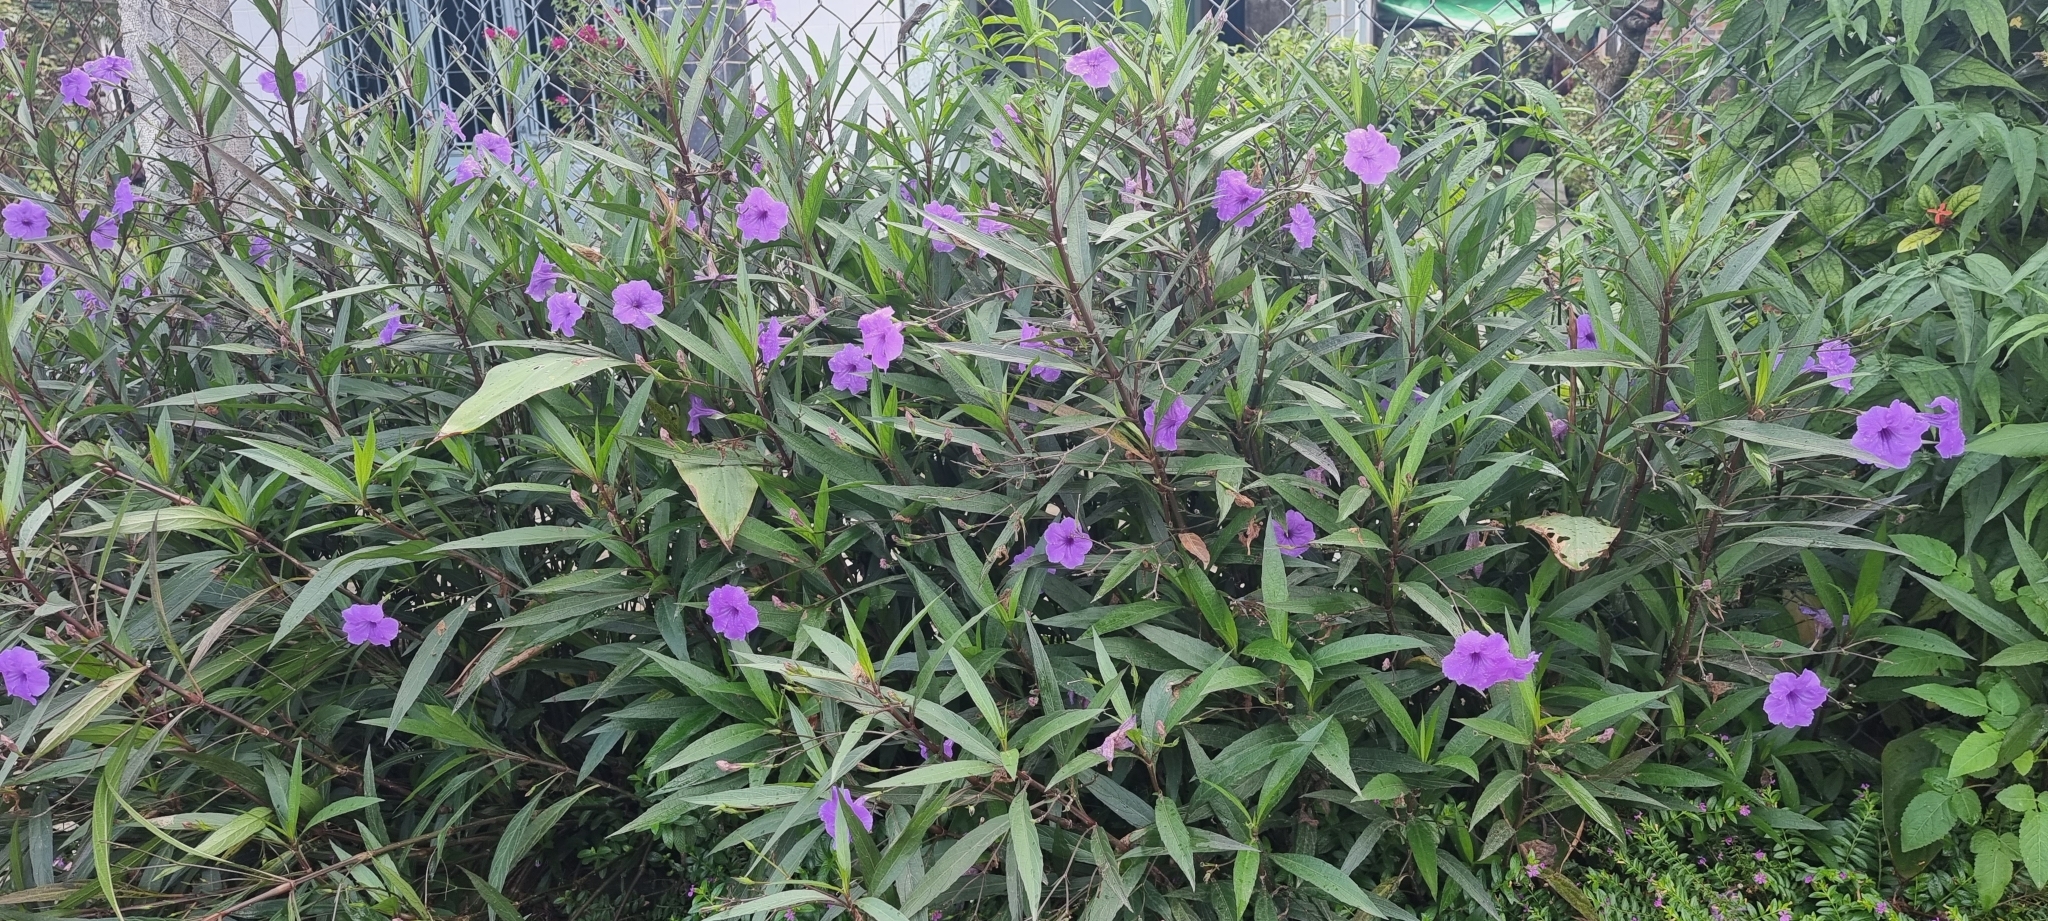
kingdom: Plantae
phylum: Tracheophyta
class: Magnoliopsida
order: Lamiales
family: Acanthaceae
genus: Ruellia
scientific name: Ruellia simplex
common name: Softseed wild petunia
